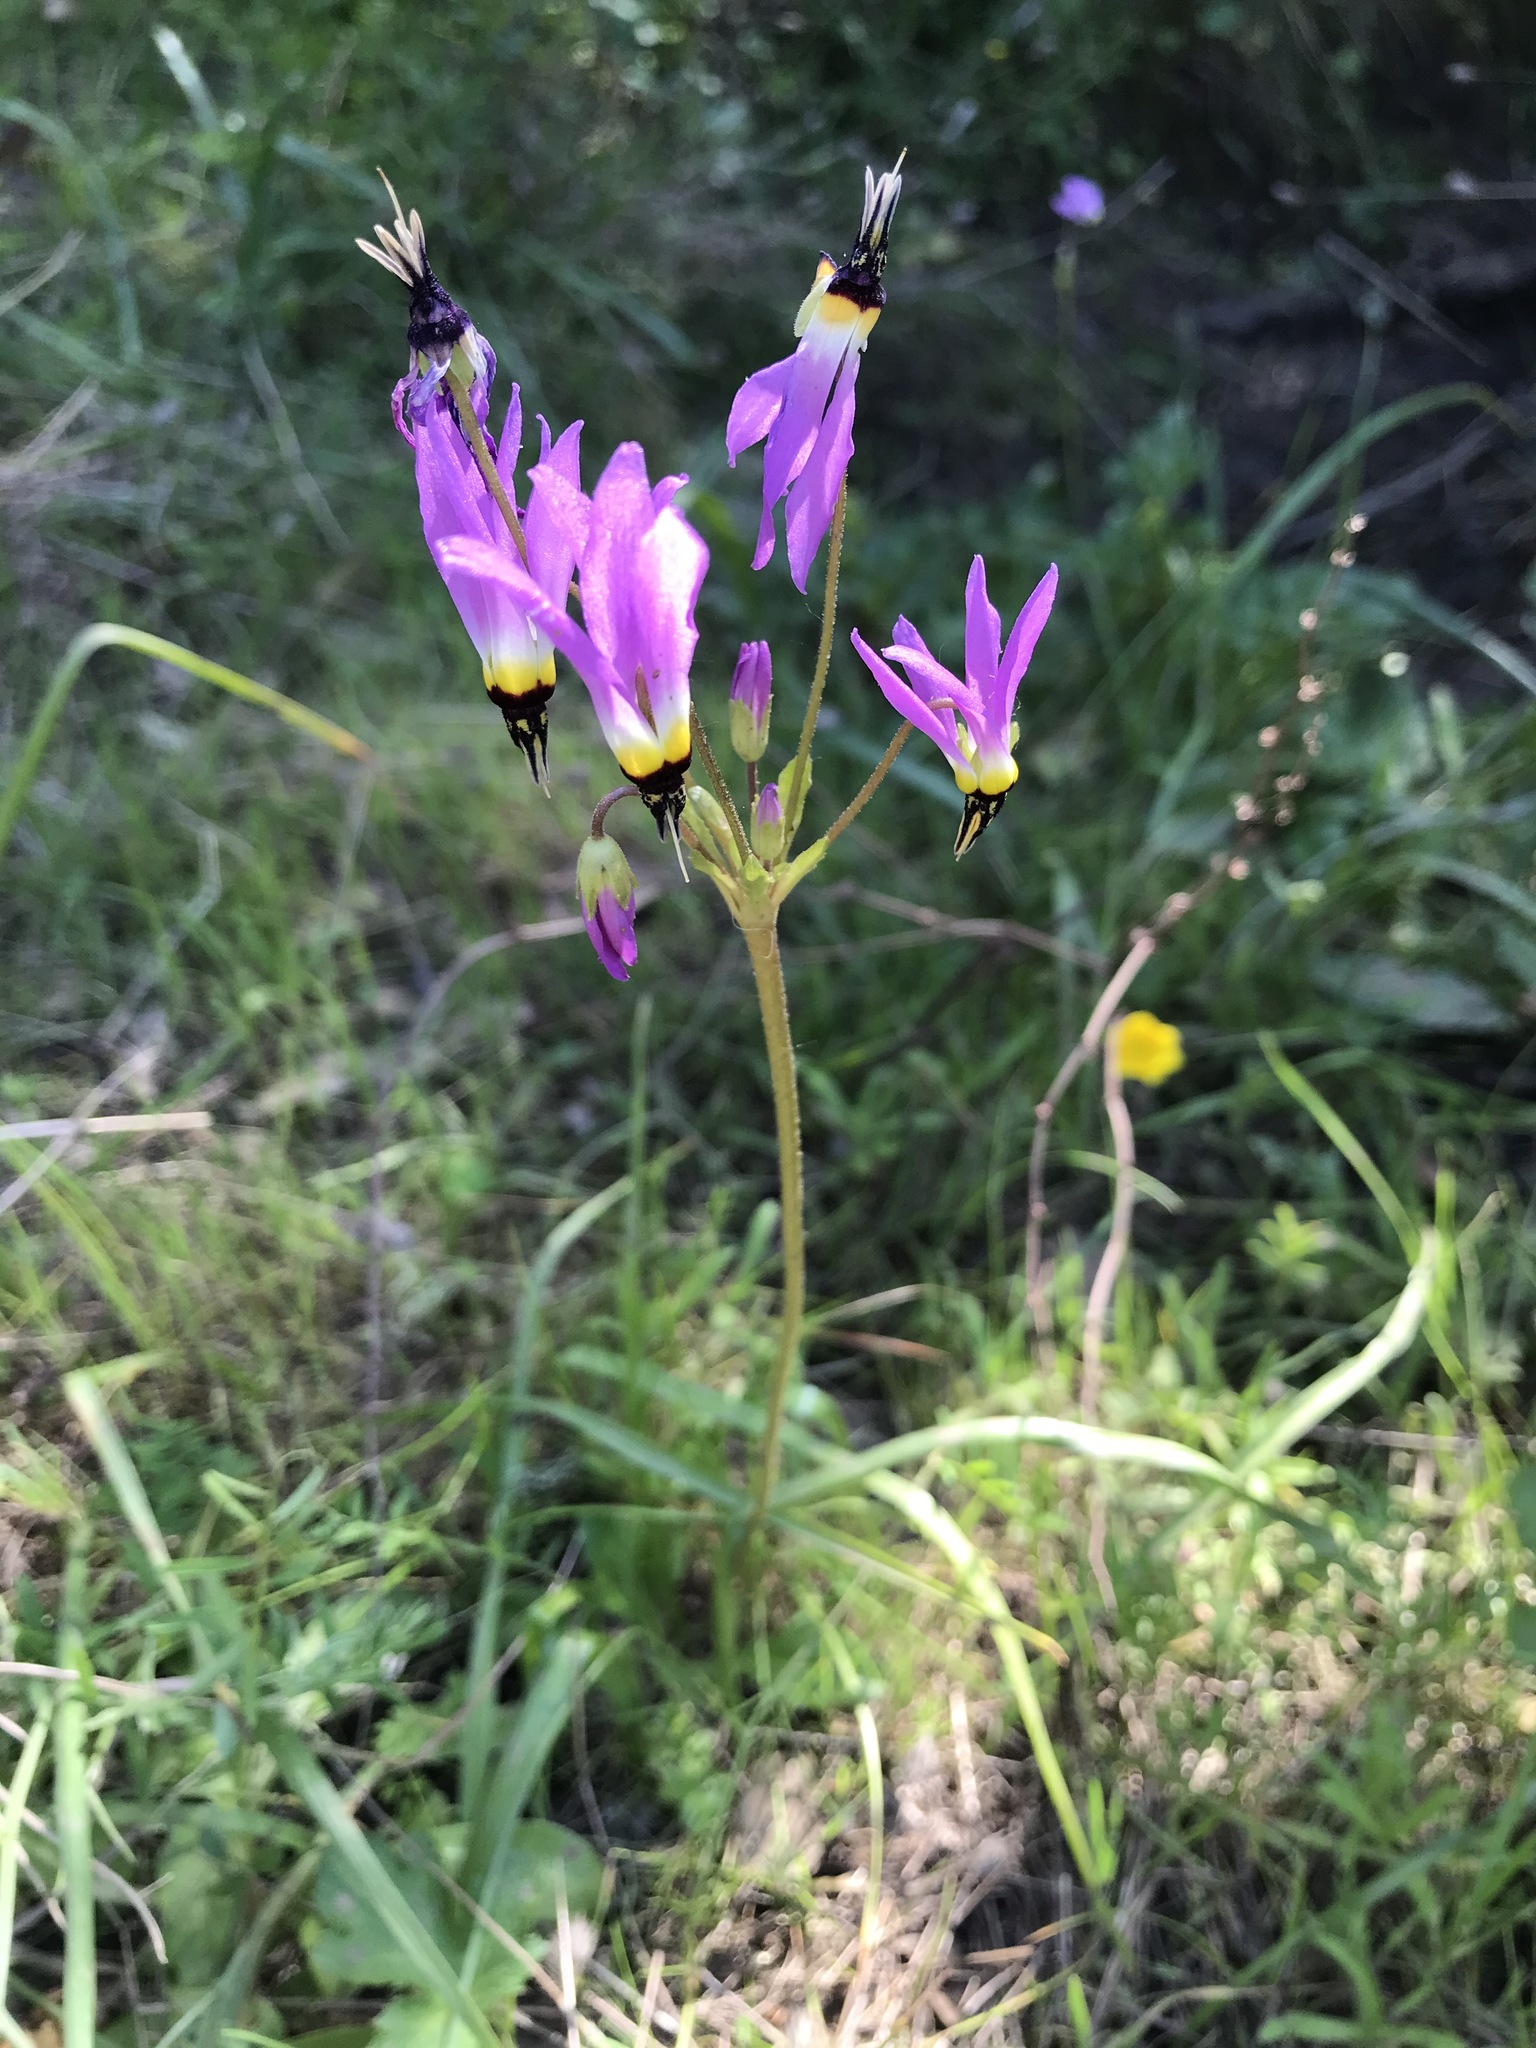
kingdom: Plantae
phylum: Tracheophyta
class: Magnoliopsida
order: Ericales
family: Primulaceae
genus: Dodecatheon
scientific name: Dodecatheon clevelandii
